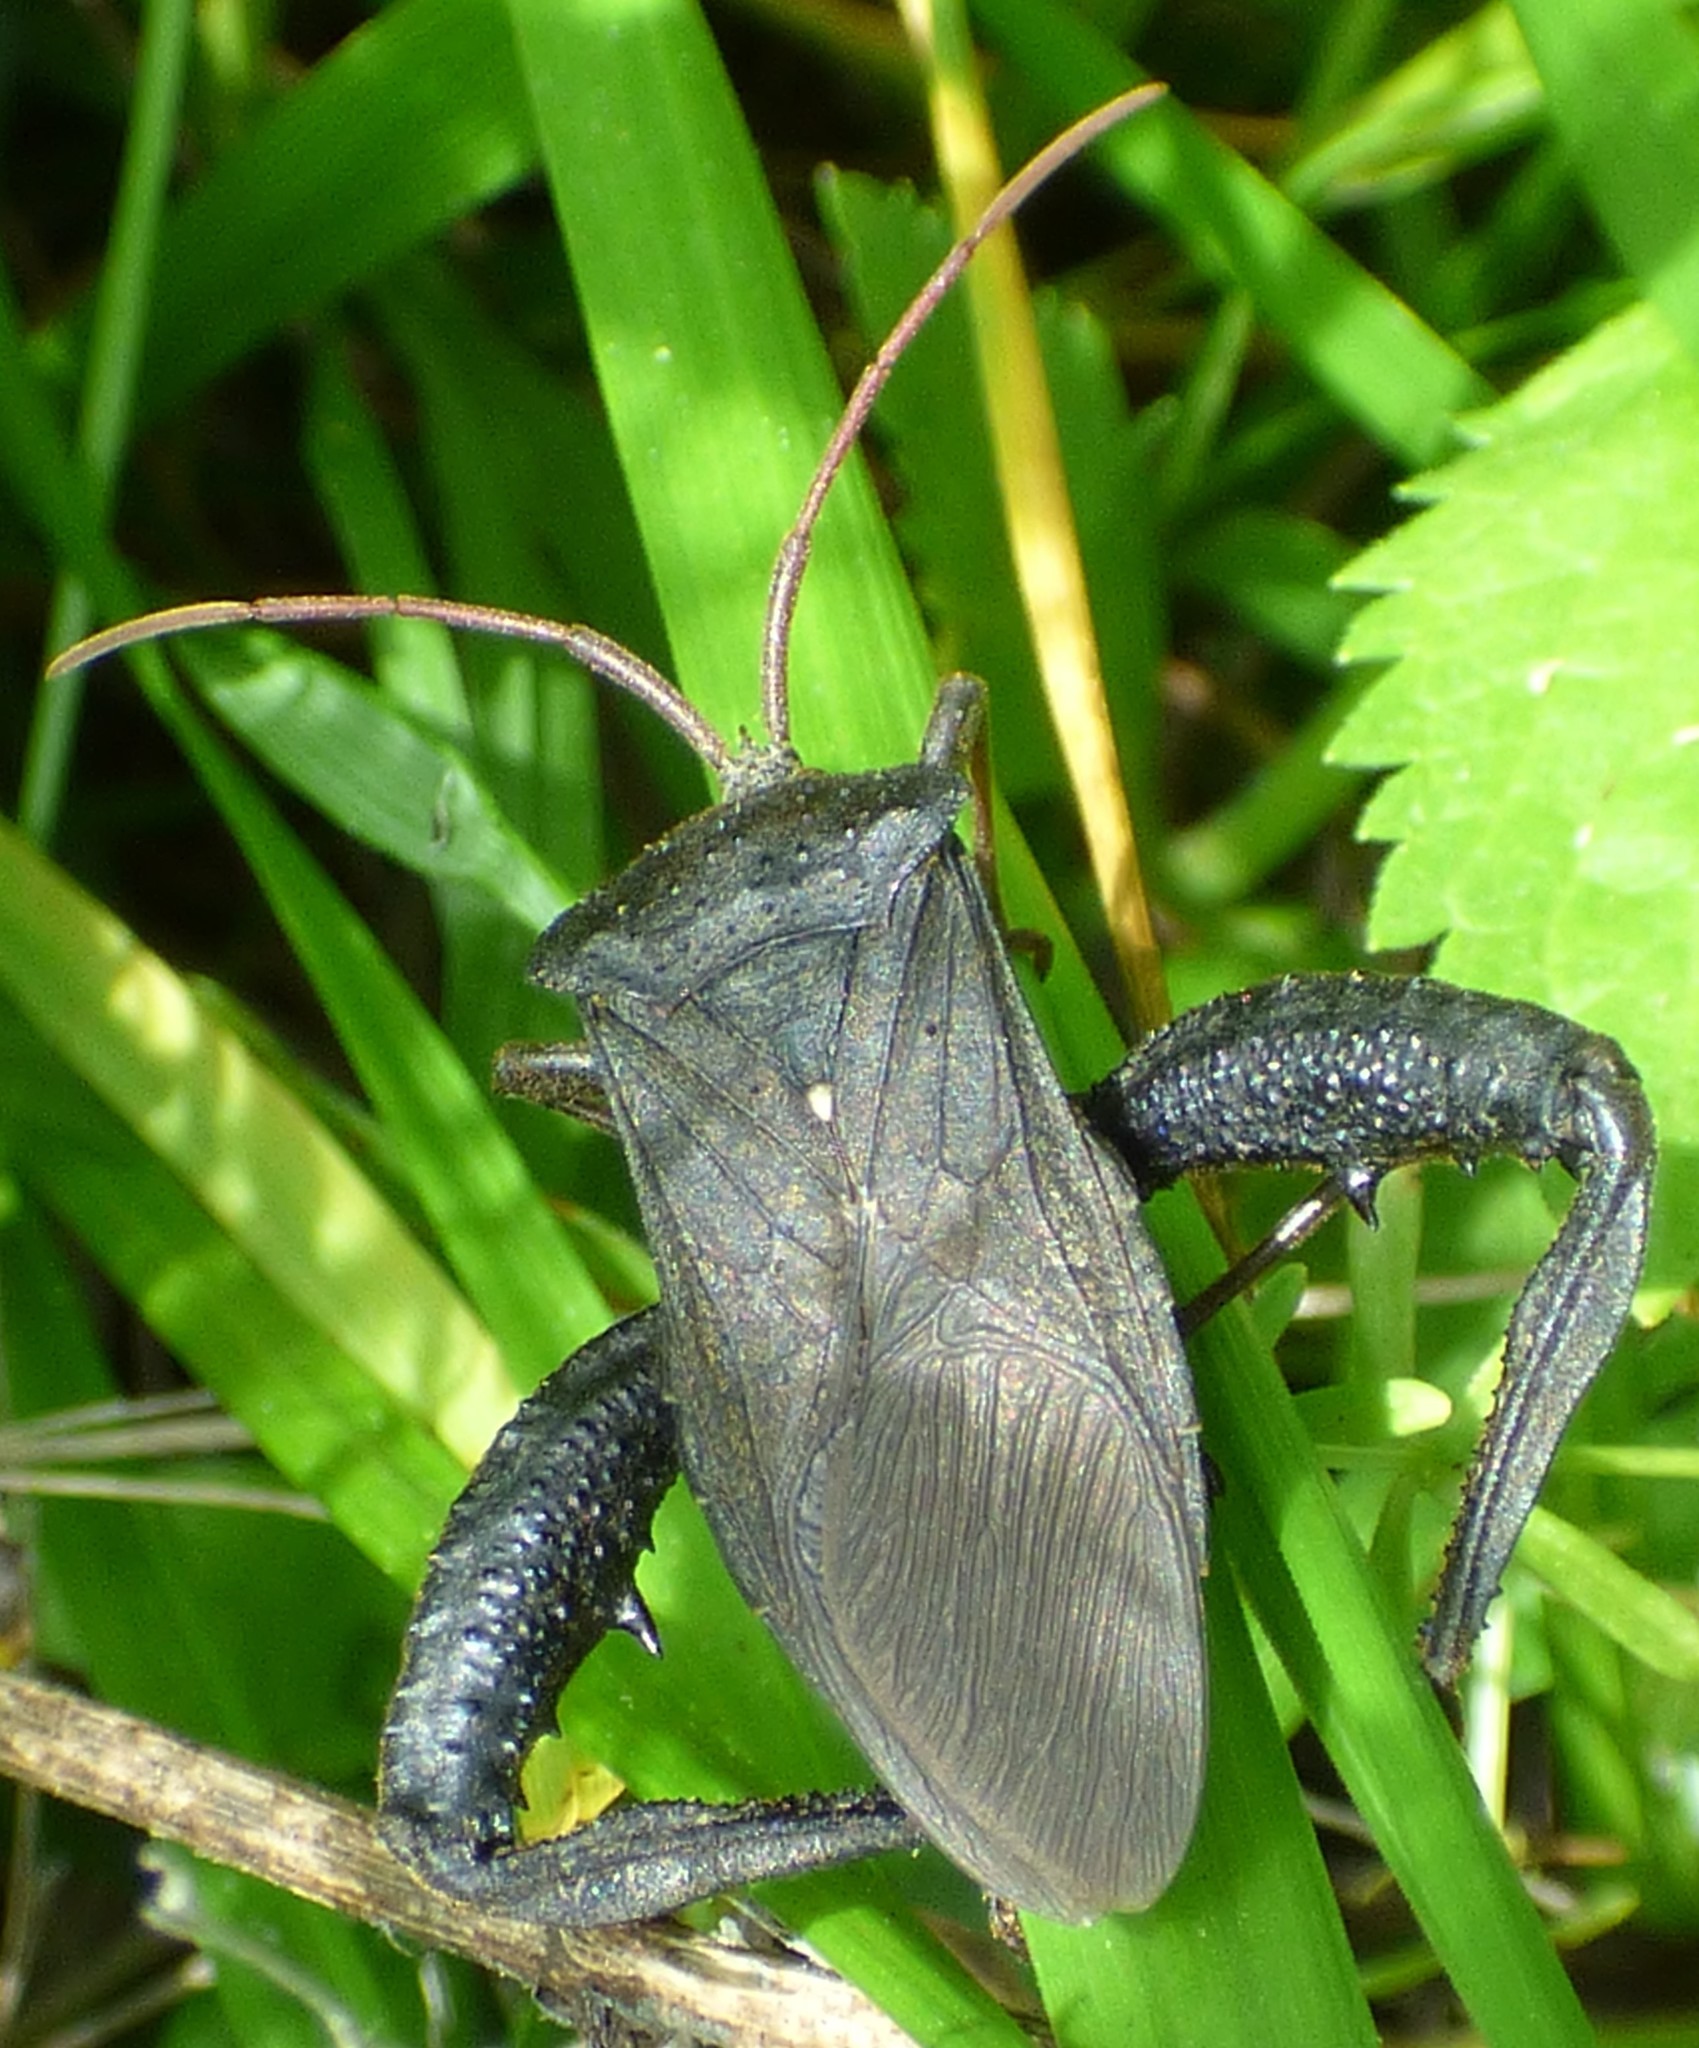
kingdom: Animalia
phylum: Arthropoda
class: Insecta
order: Hemiptera
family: Coreidae
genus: Acanthocephala
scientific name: Acanthocephala femorata
